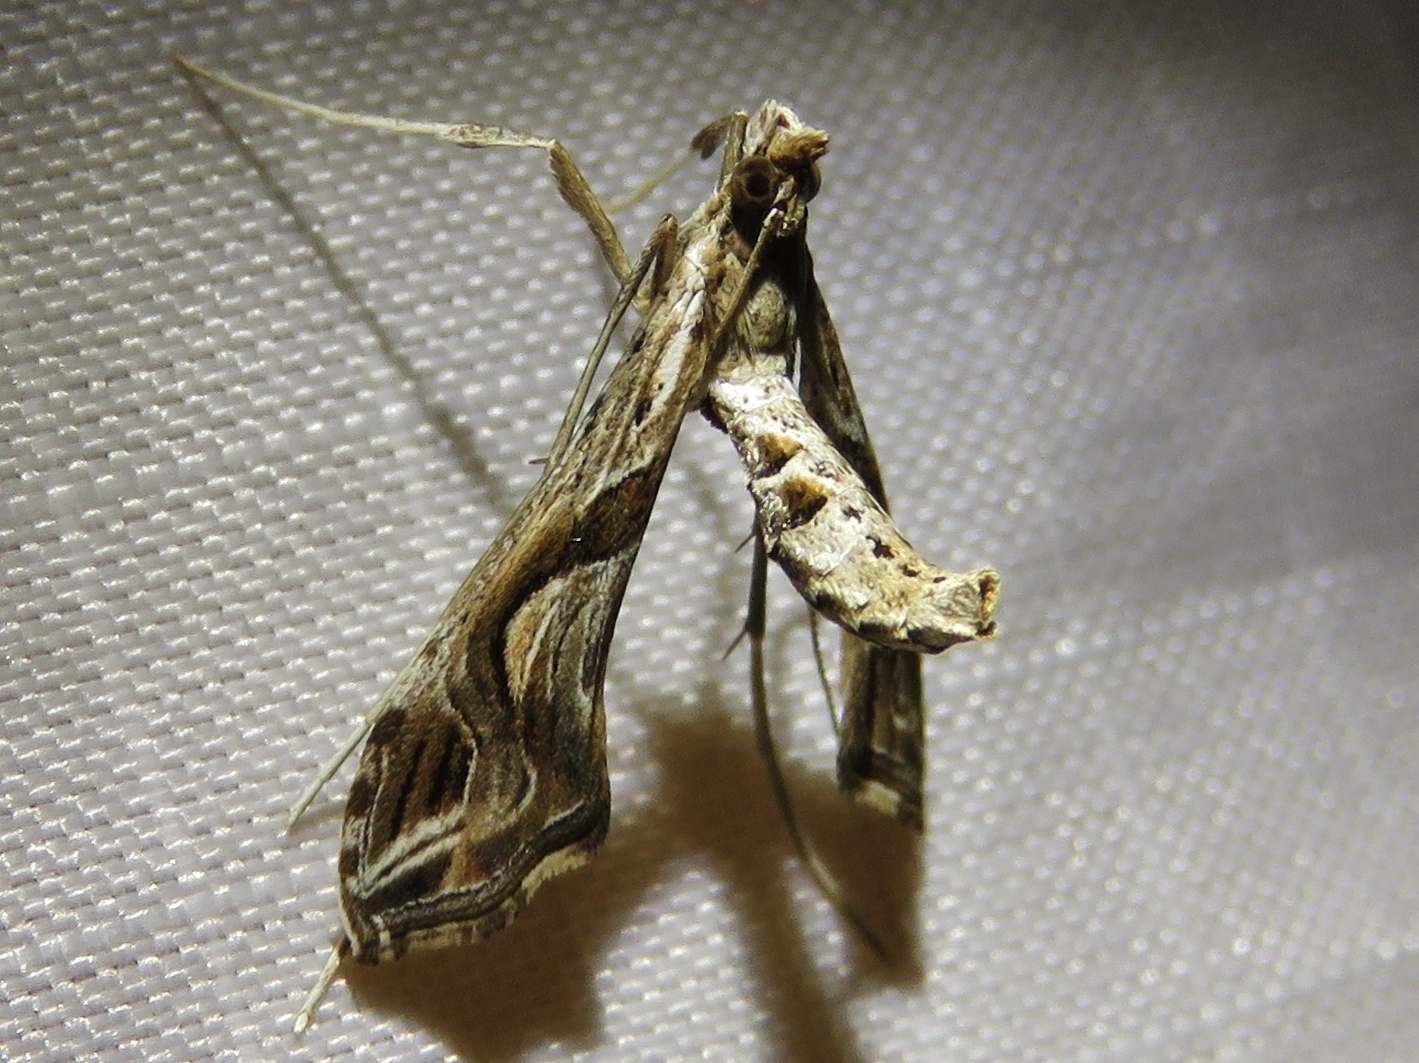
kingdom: Animalia
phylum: Arthropoda
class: Insecta
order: Lepidoptera
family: Crambidae
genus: Lineodes
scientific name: Lineodes integra
